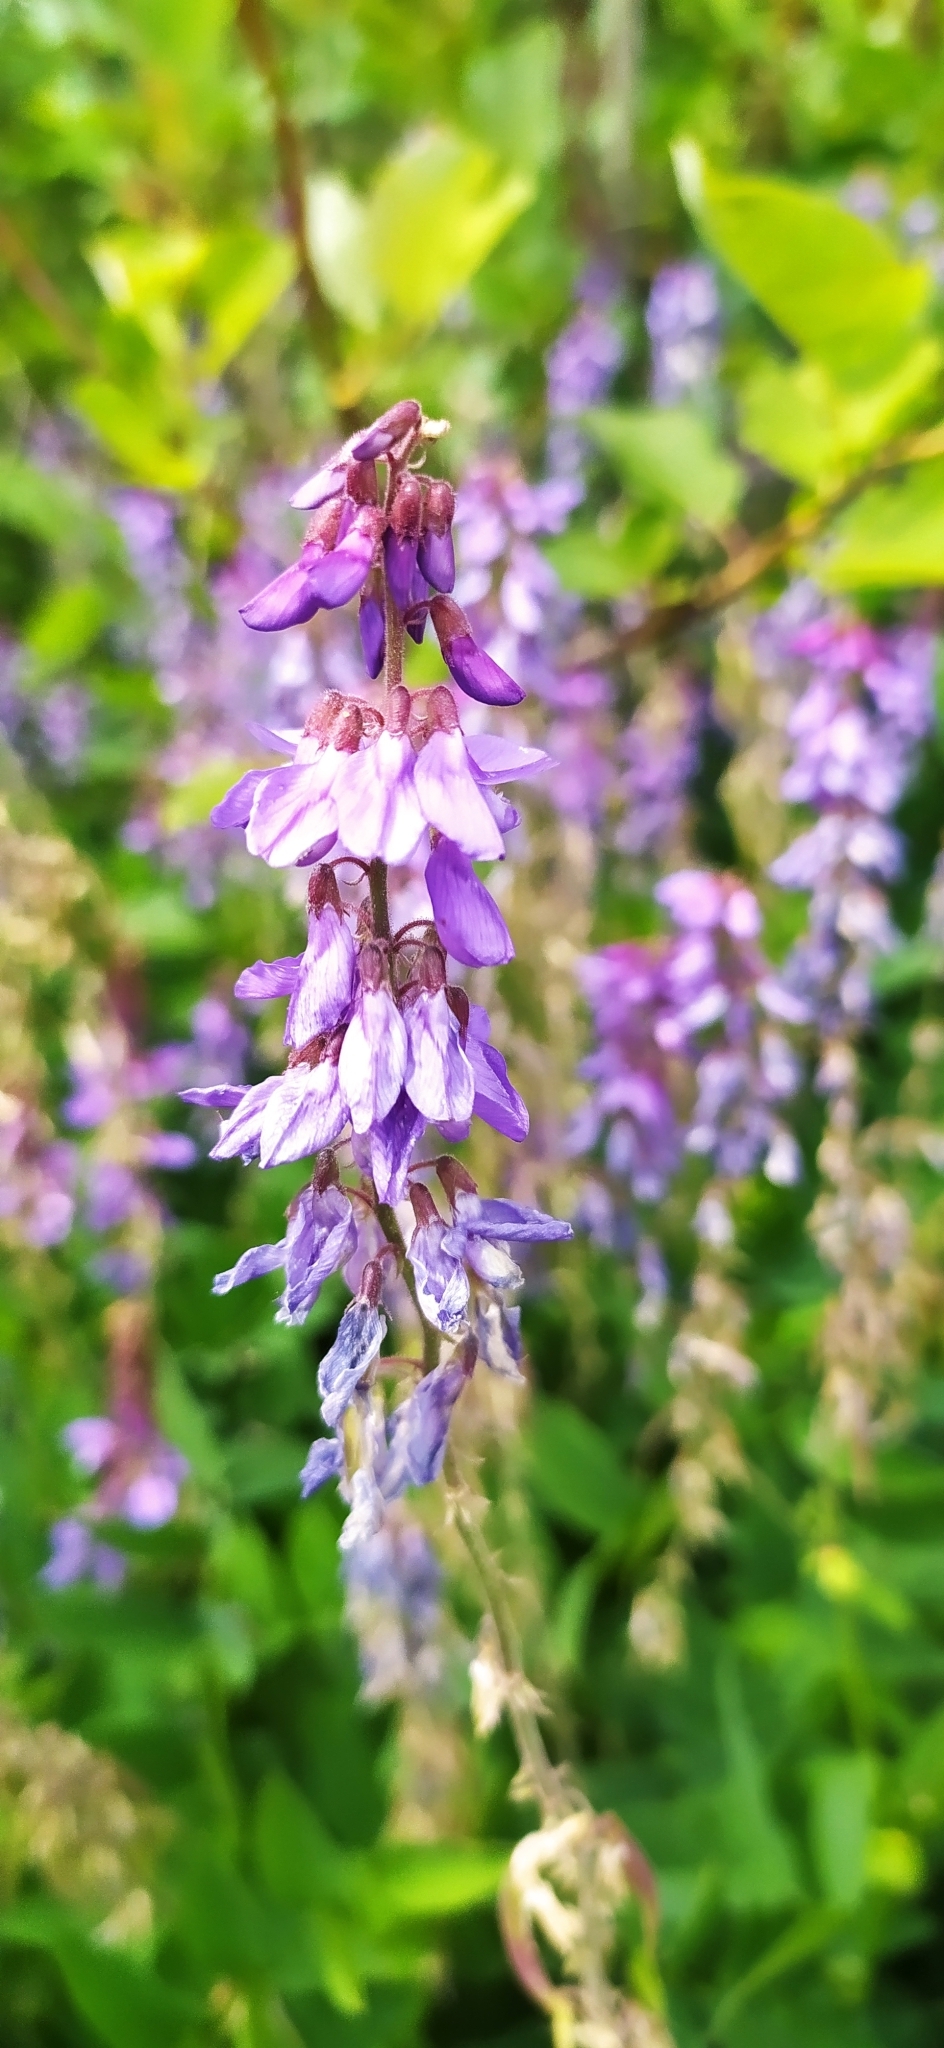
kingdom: Plantae
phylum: Tracheophyta
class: Magnoliopsida
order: Fabales
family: Fabaceae
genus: Galega
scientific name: Galega orientalis
